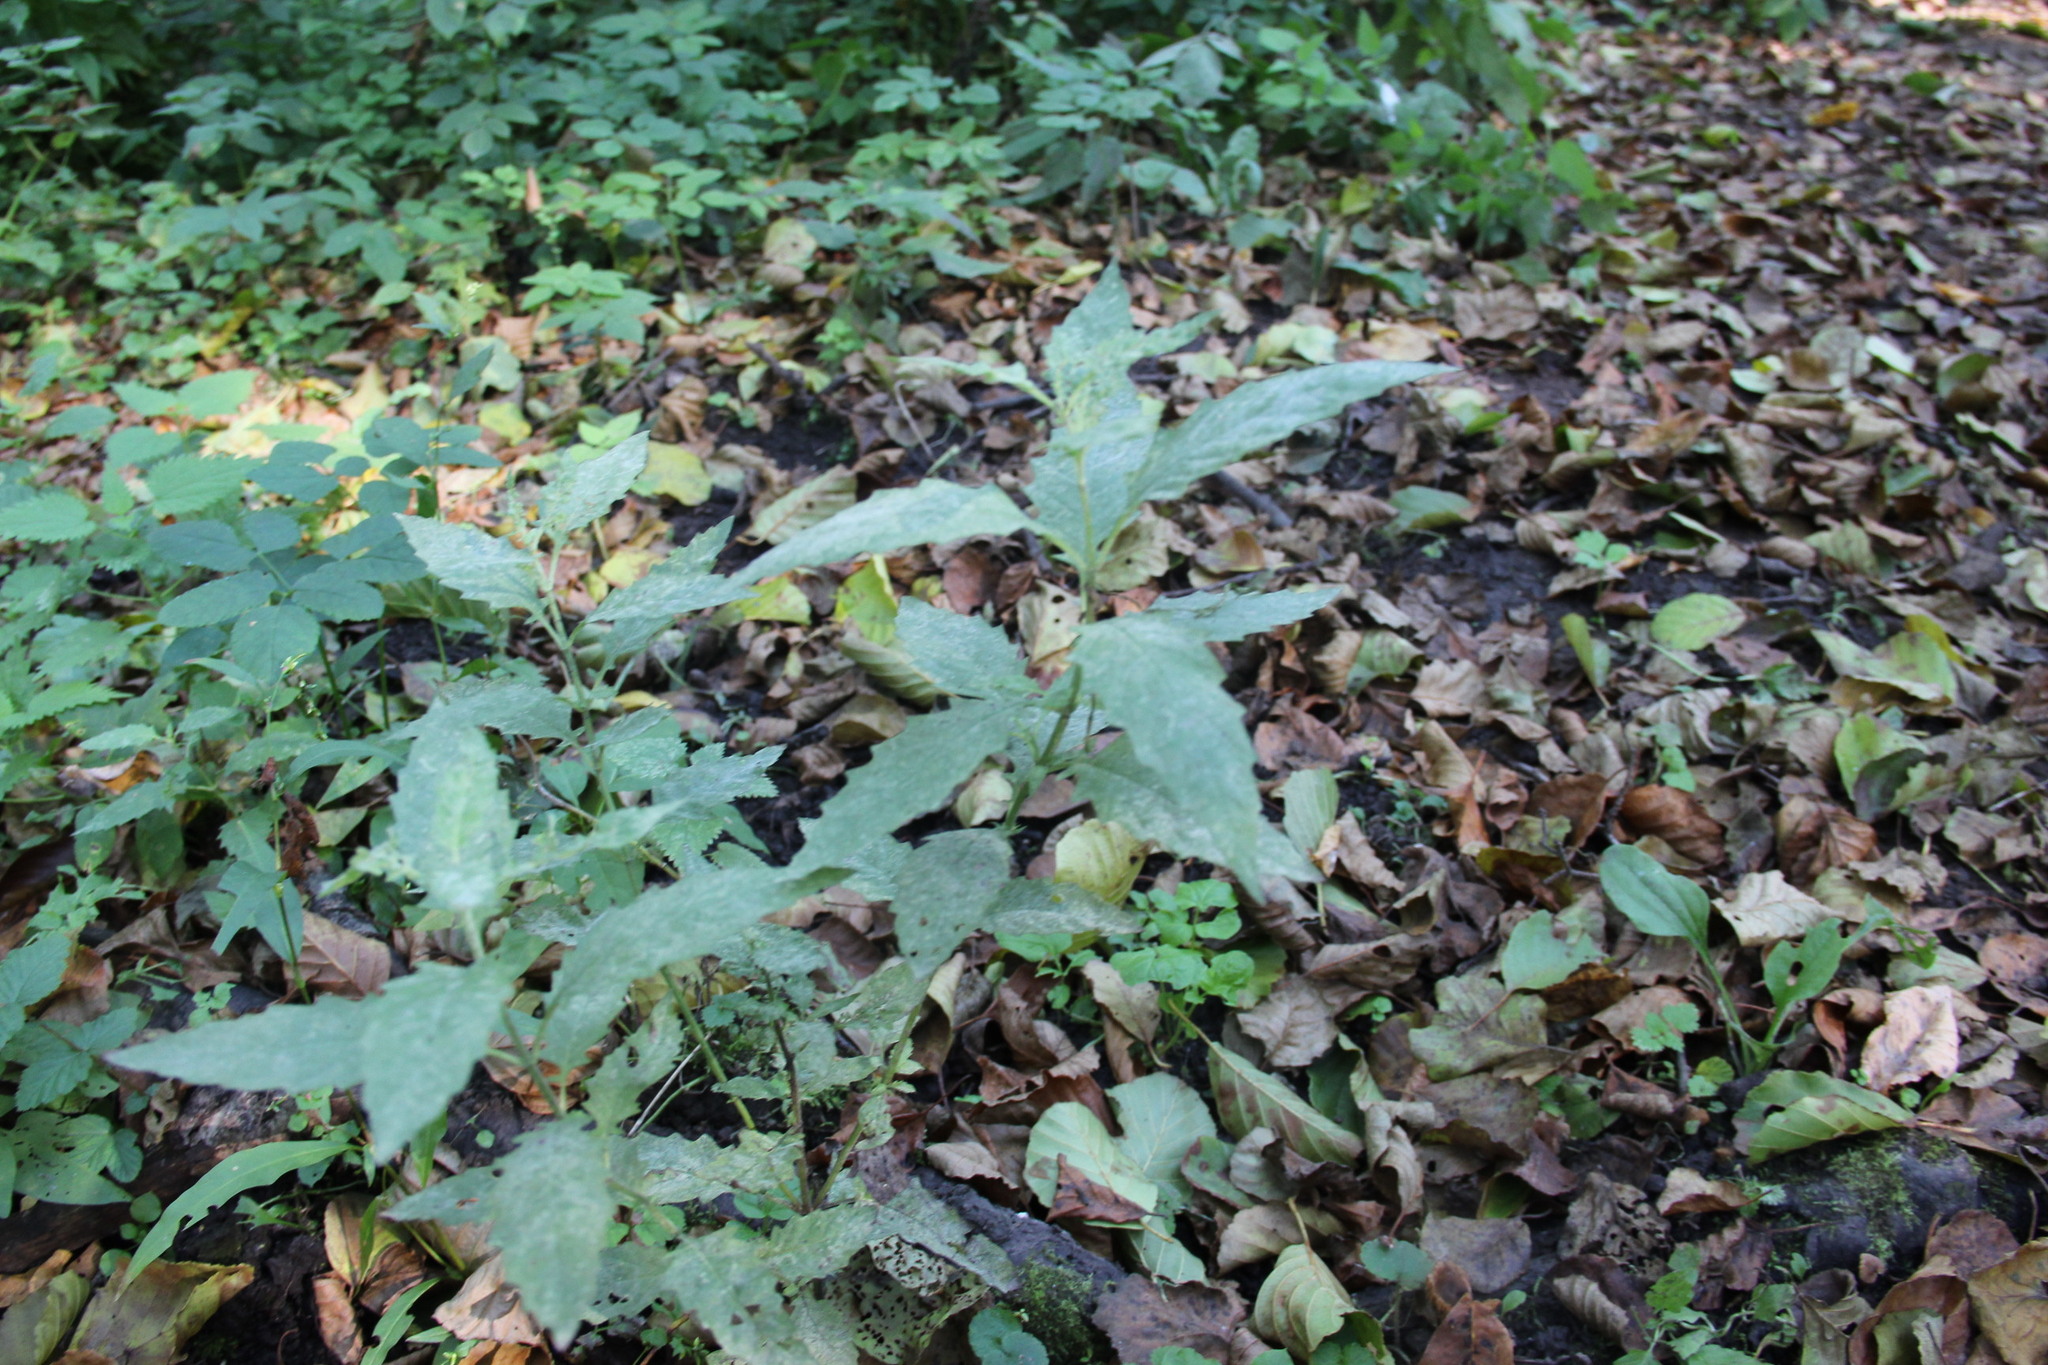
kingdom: Plantae
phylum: Tracheophyta
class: Magnoliopsida
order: Lamiales
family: Lamiaceae
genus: Lycopus
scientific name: Lycopus europaeus
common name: European bugleweed
